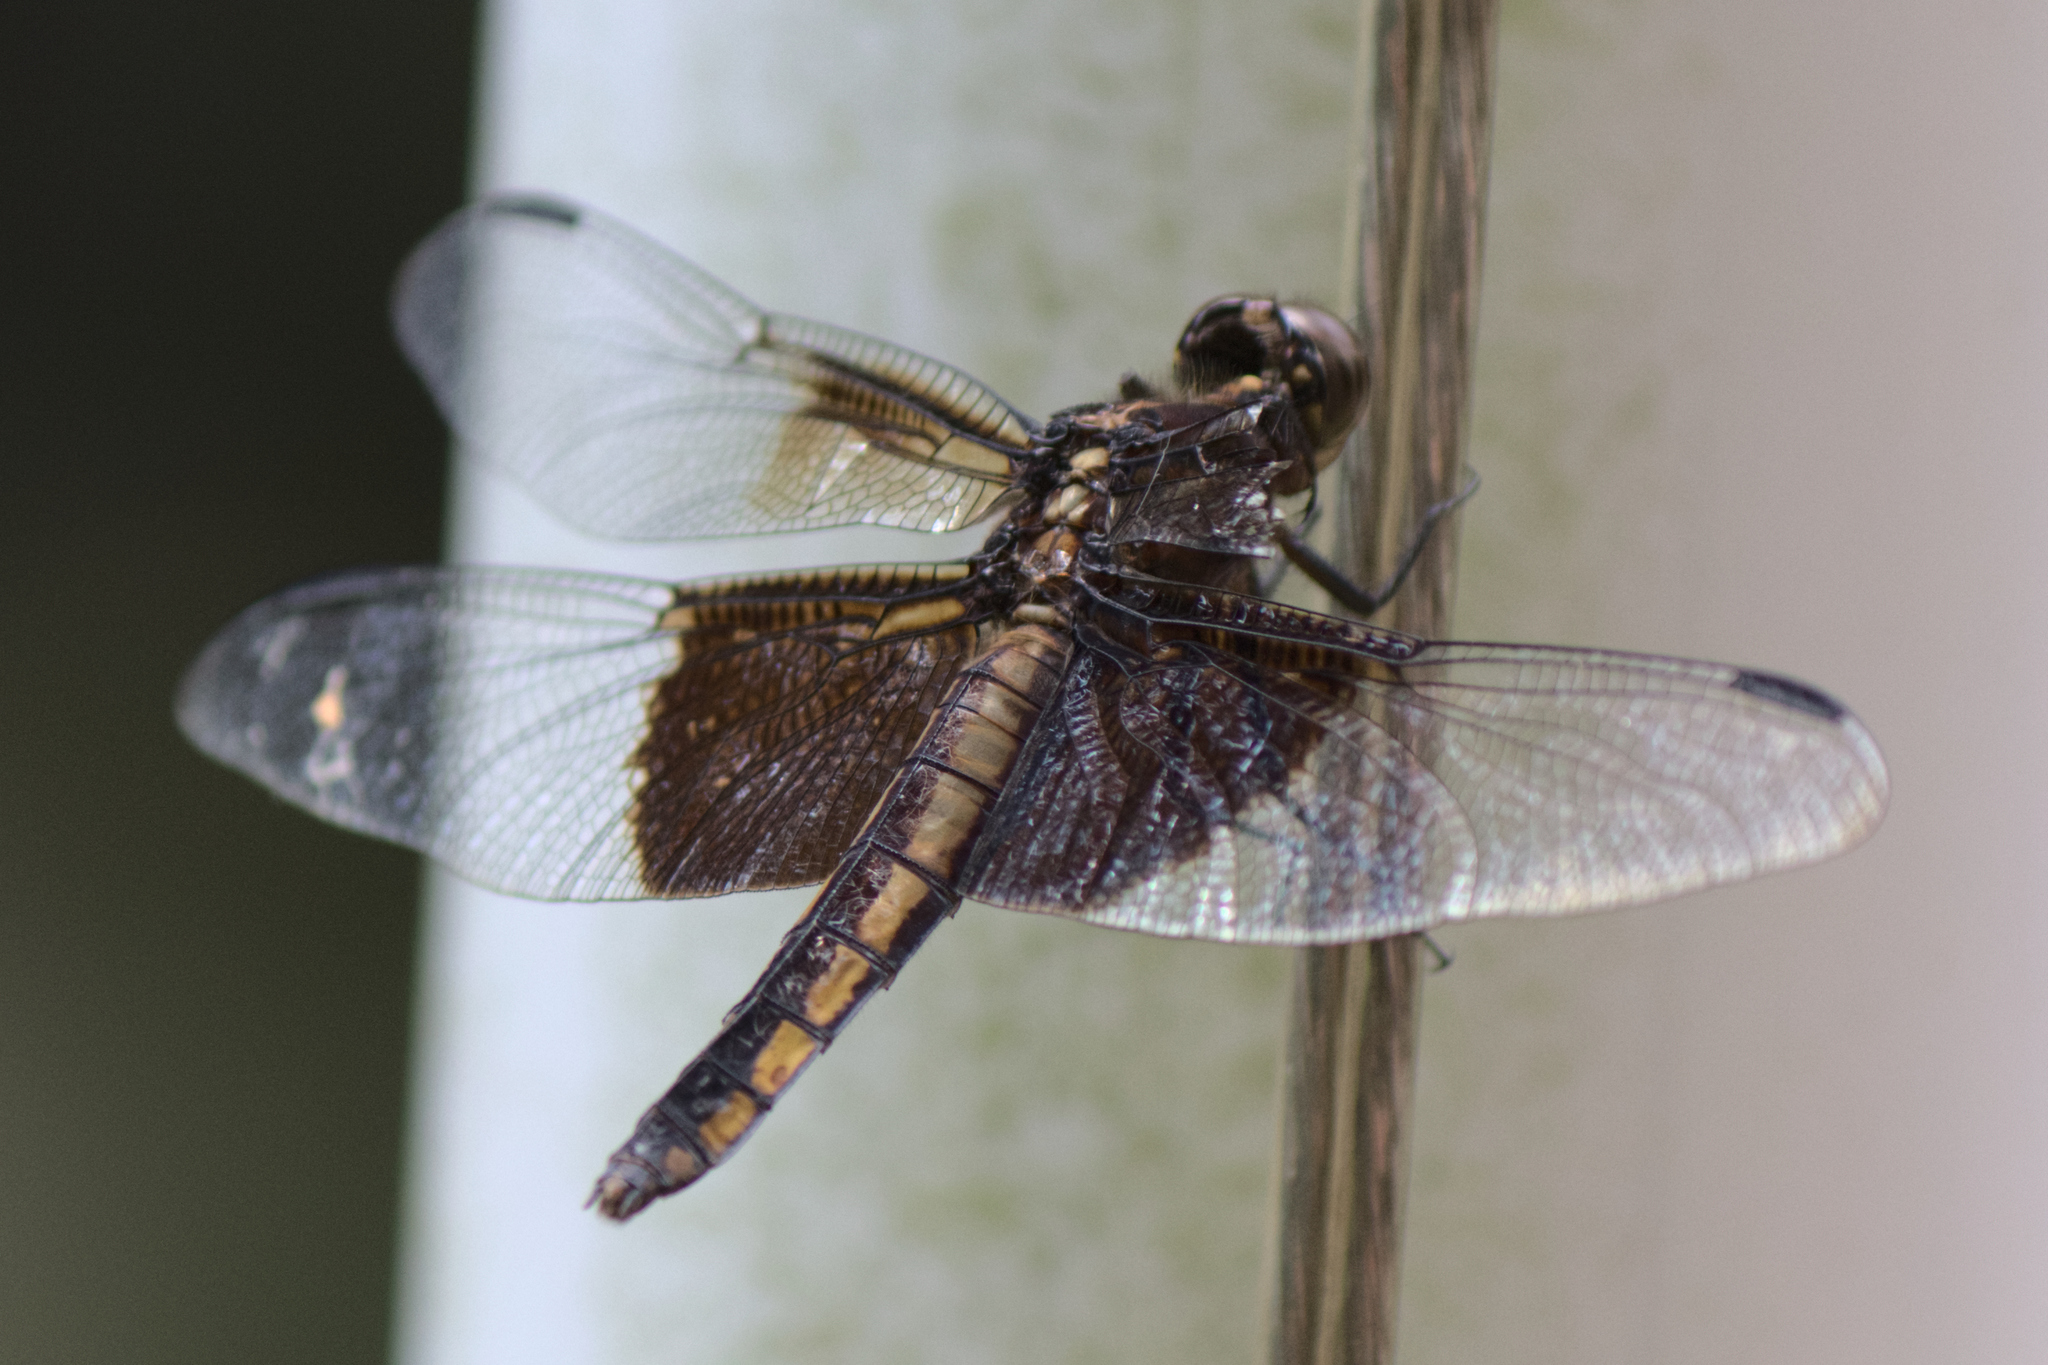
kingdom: Animalia
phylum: Arthropoda
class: Insecta
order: Odonata
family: Libellulidae
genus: Libellula
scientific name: Libellula luctuosa
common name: Widow skimmer
